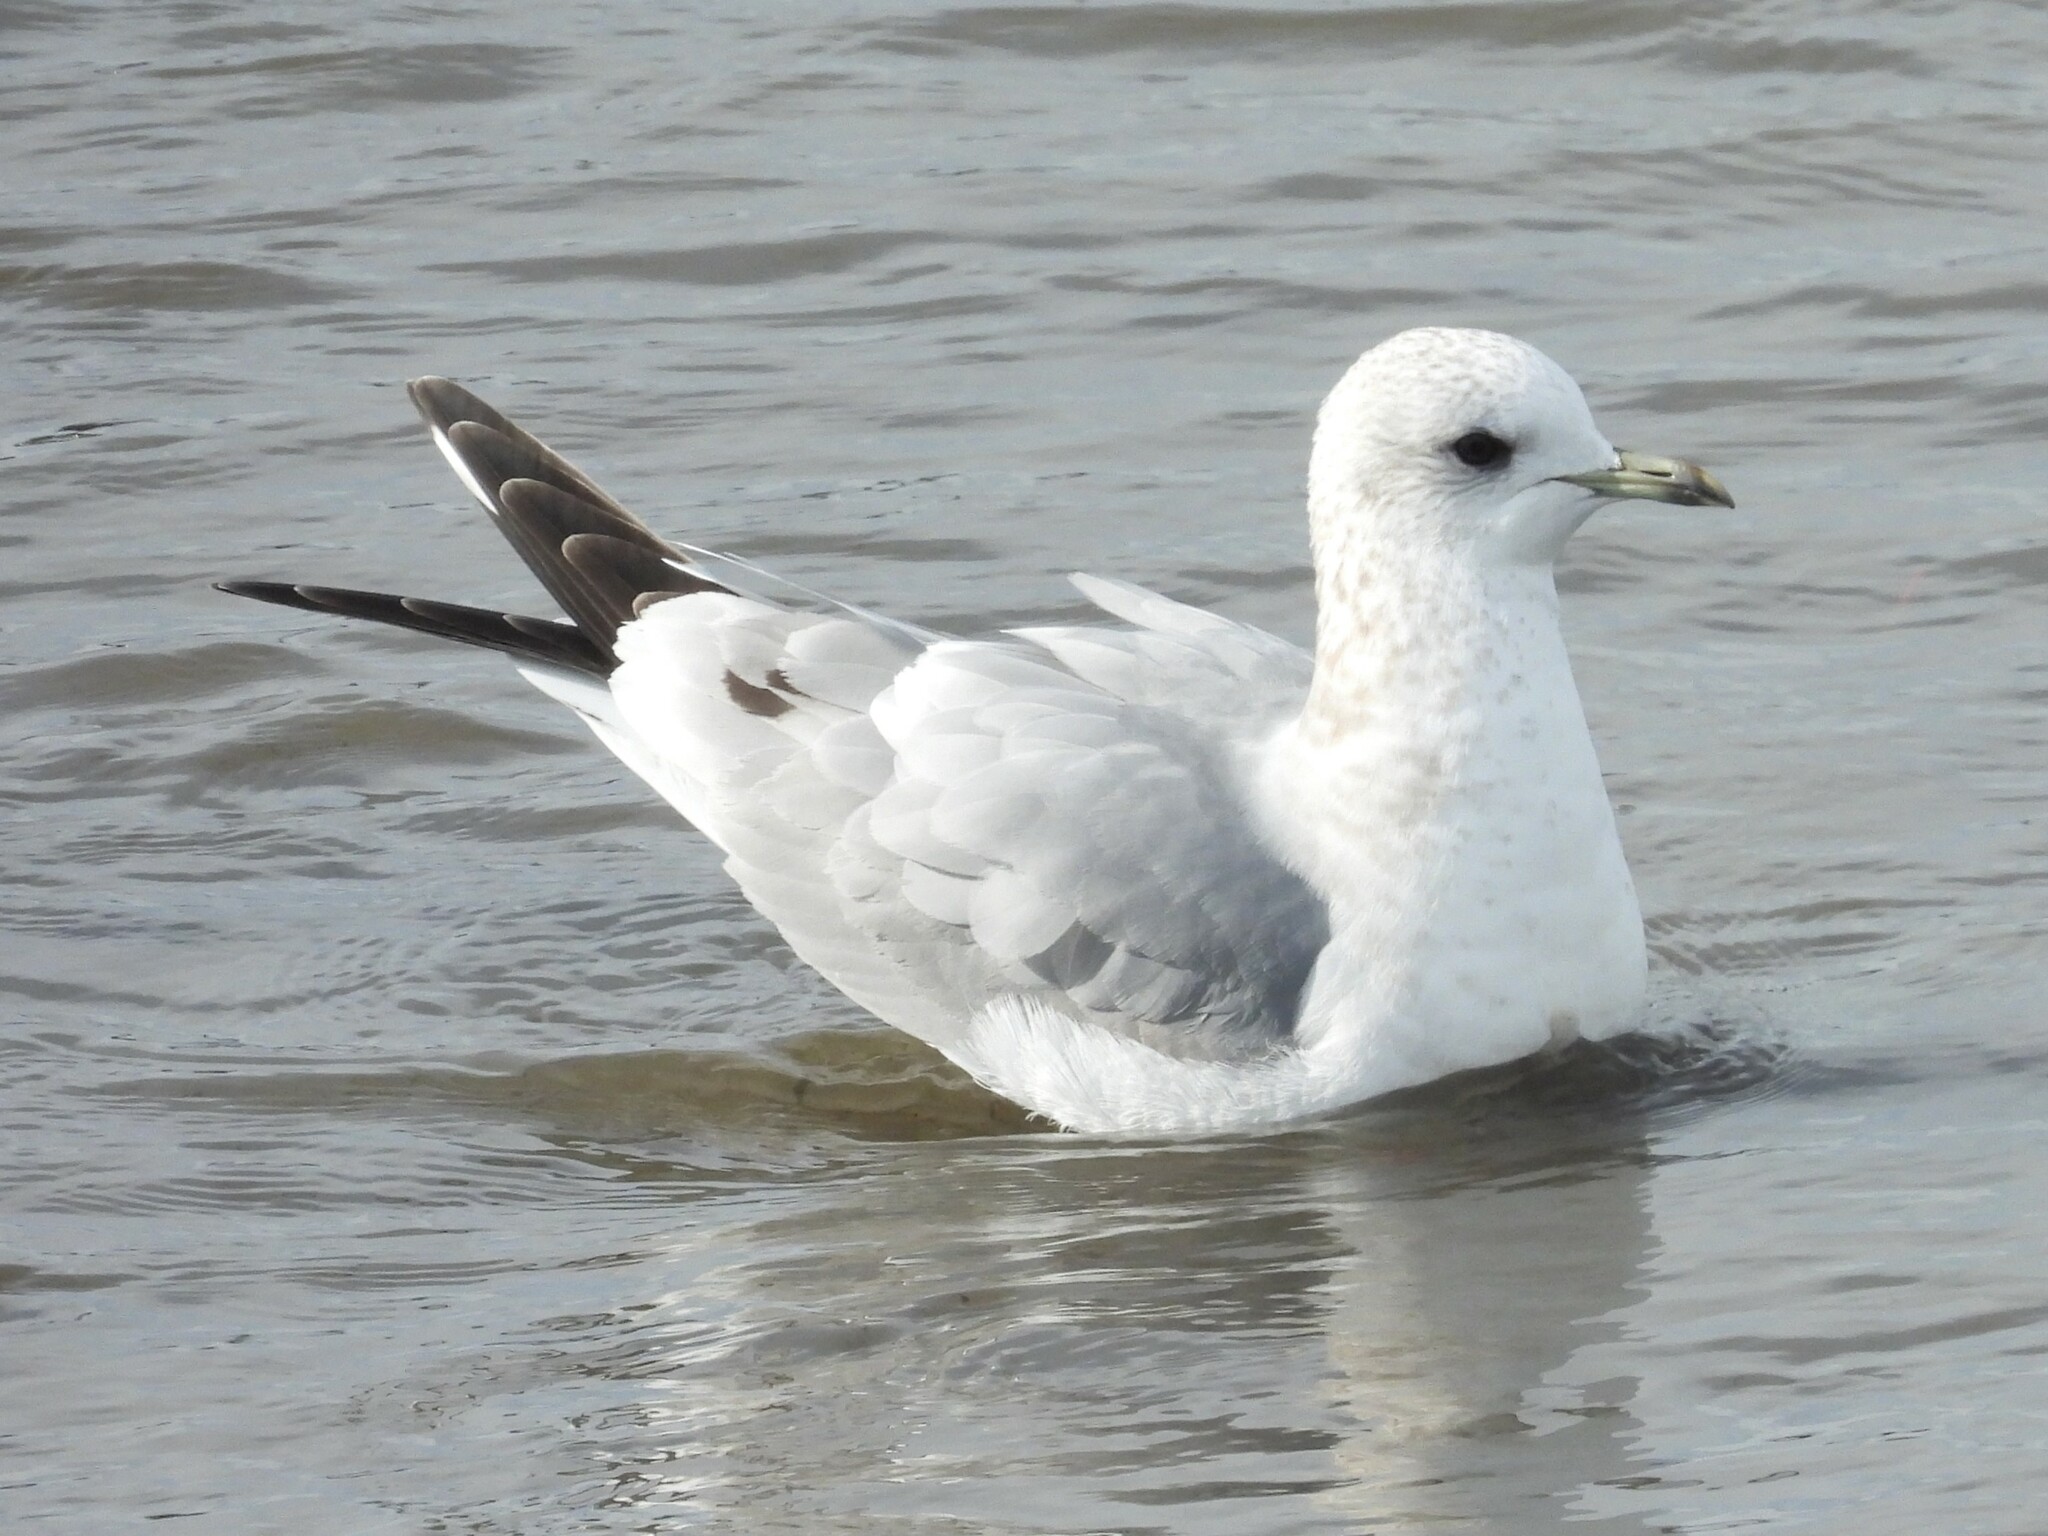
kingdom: Animalia
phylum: Chordata
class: Aves
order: Charadriiformes
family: Laridae
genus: Larus
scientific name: Larus brachyrhynchus
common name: Short-billed gull
